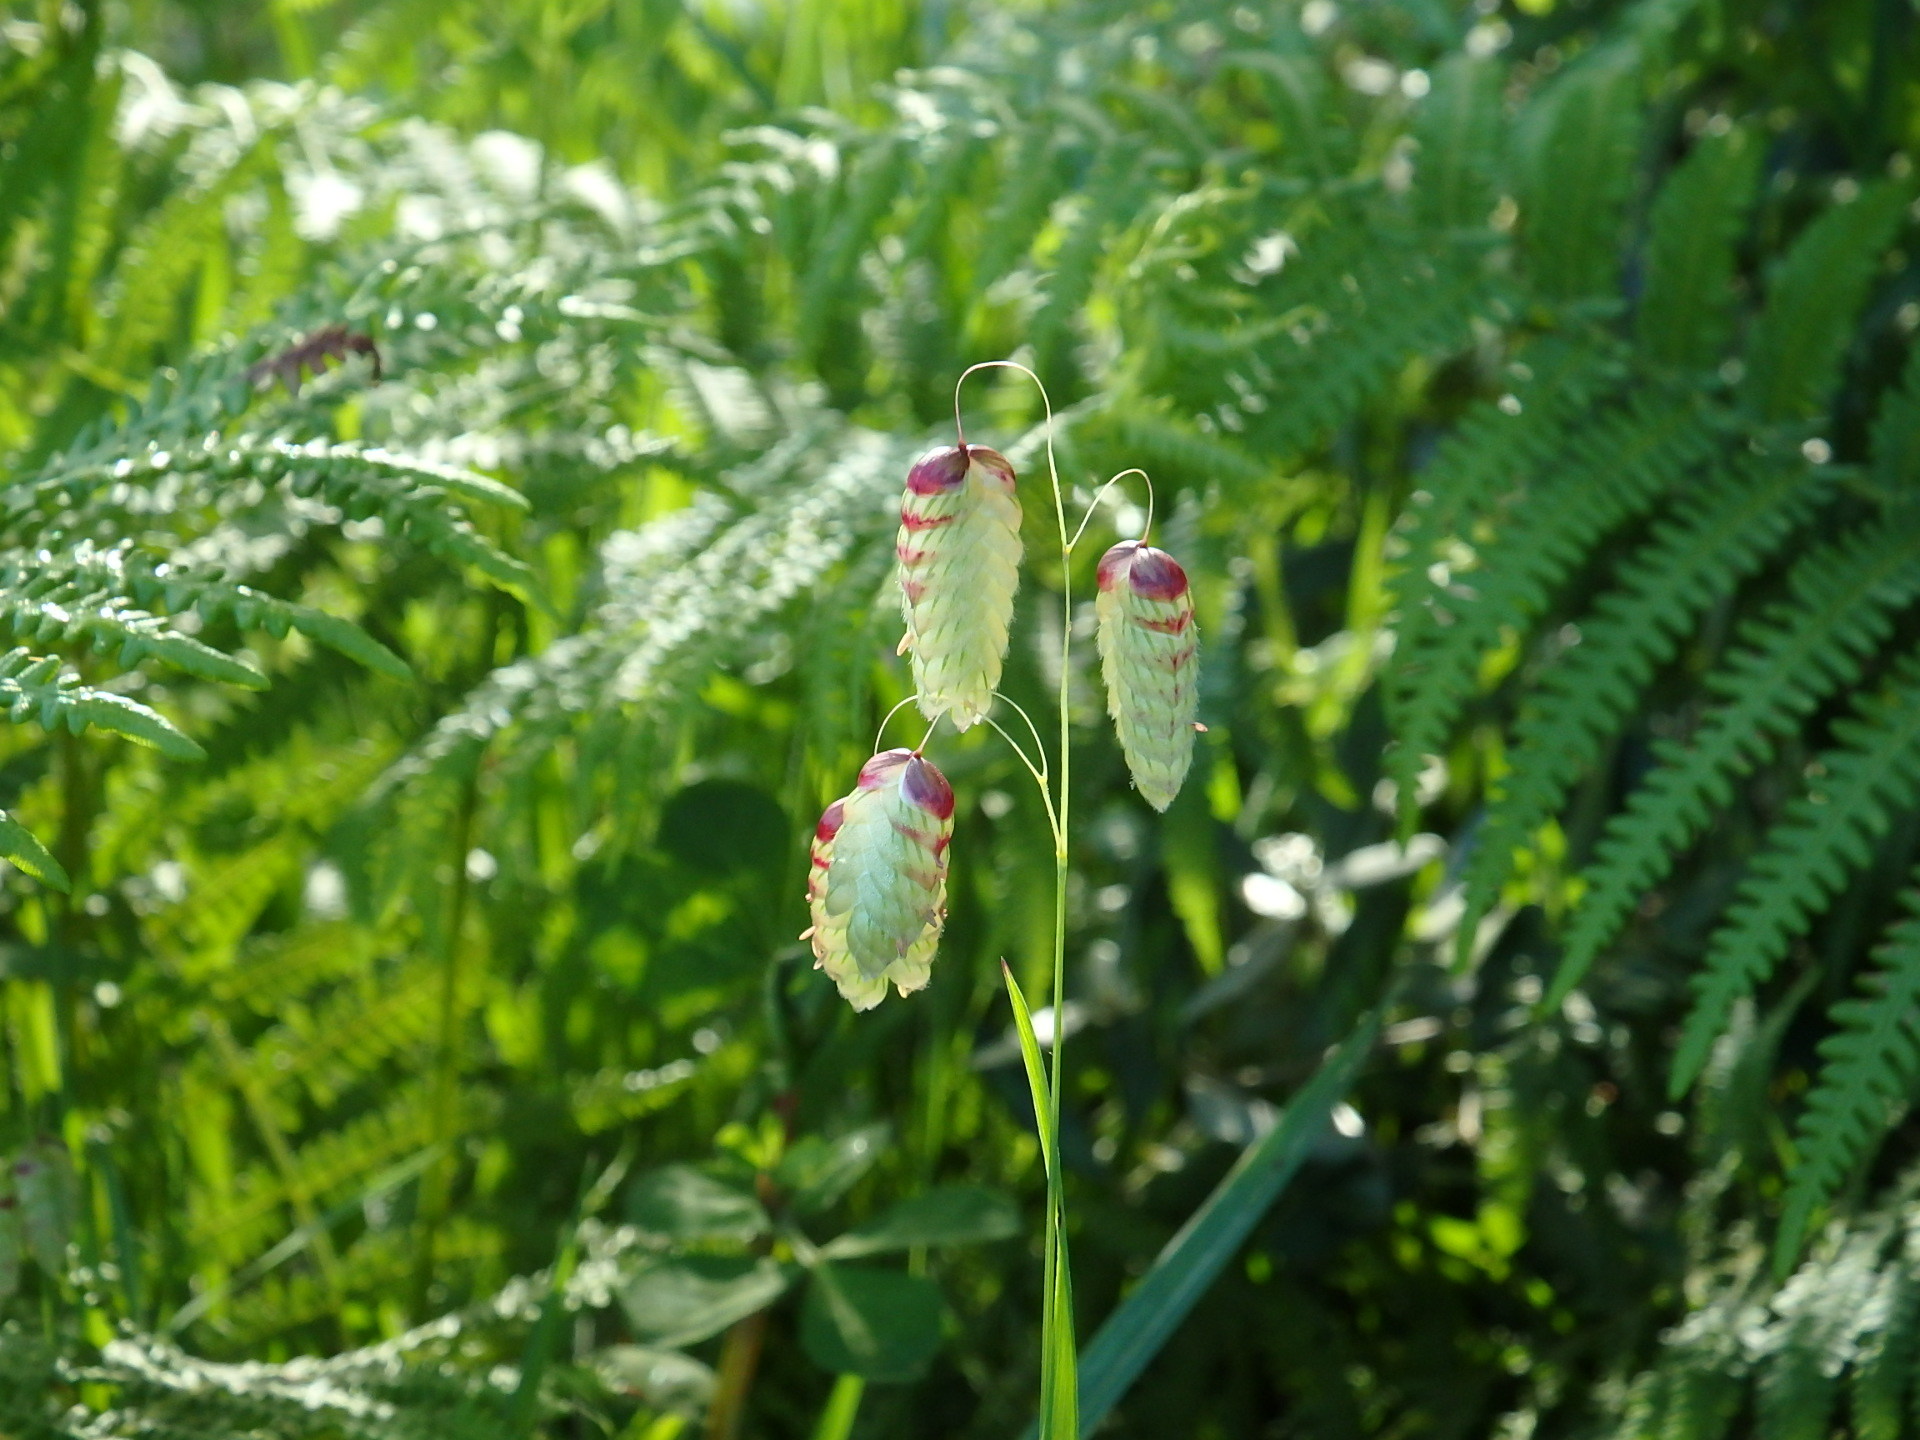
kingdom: Plantae
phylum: Tracheophyta
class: Liliopsida
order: Poales
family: Poaceae
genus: Briza
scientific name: Briza maxima
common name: Big quakinggrass
